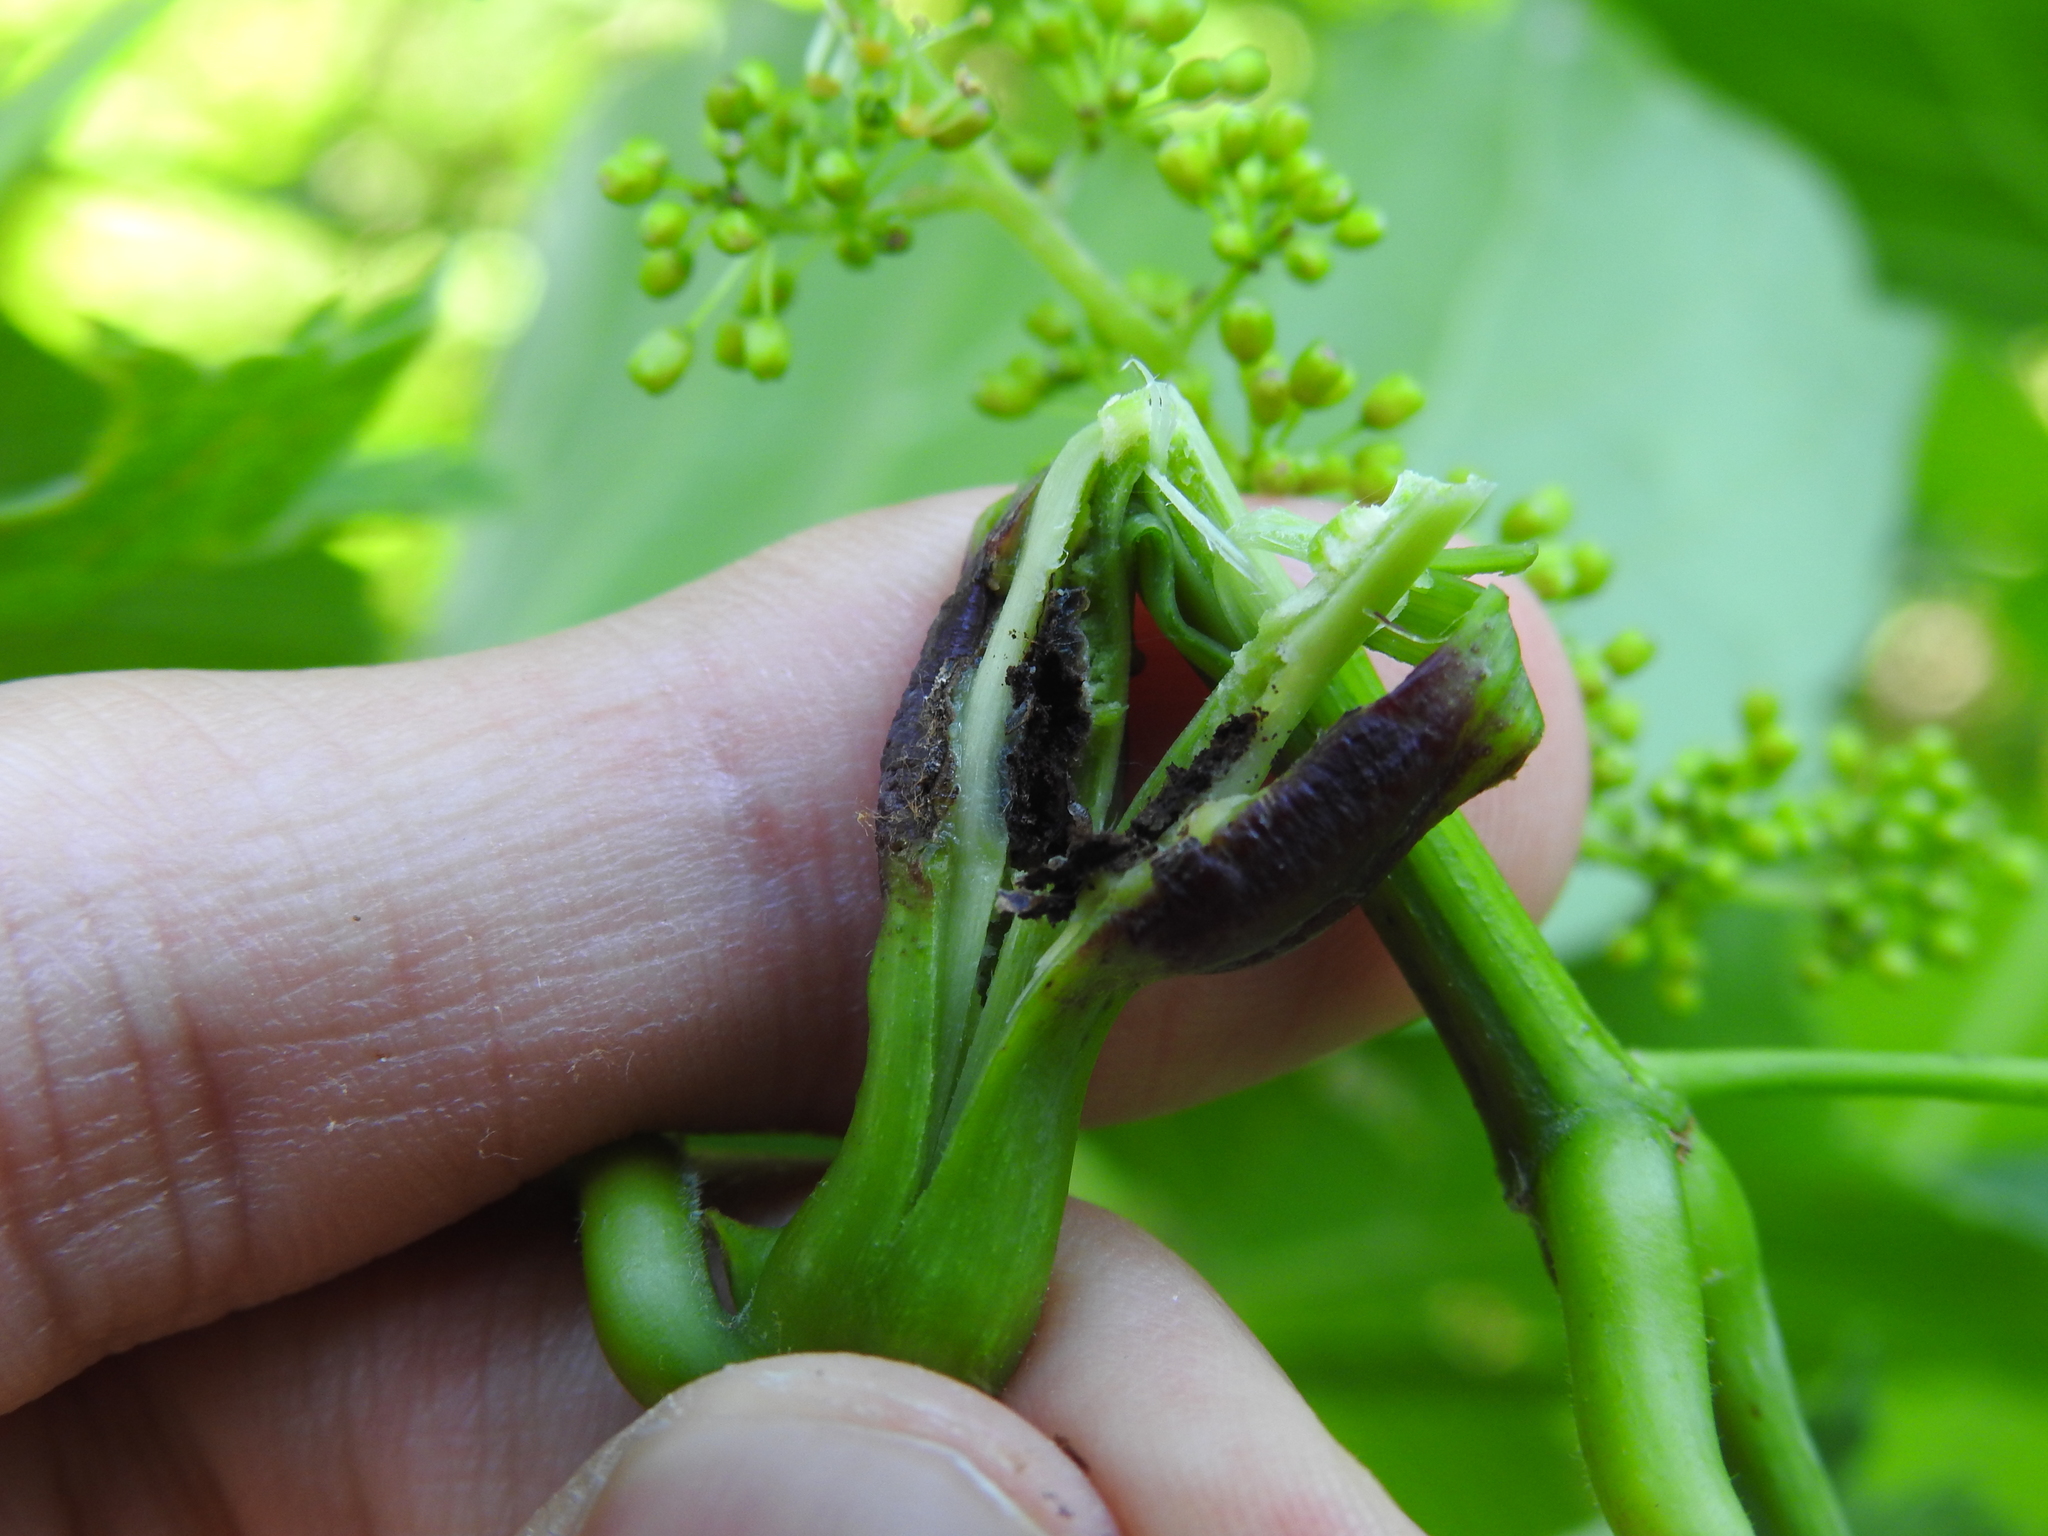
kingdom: Animalia
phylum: Arthropoda
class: Insecta
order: Coleoptera
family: Curculionidae
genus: Ampeloglypter
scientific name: Ampeloglypter sesostris
